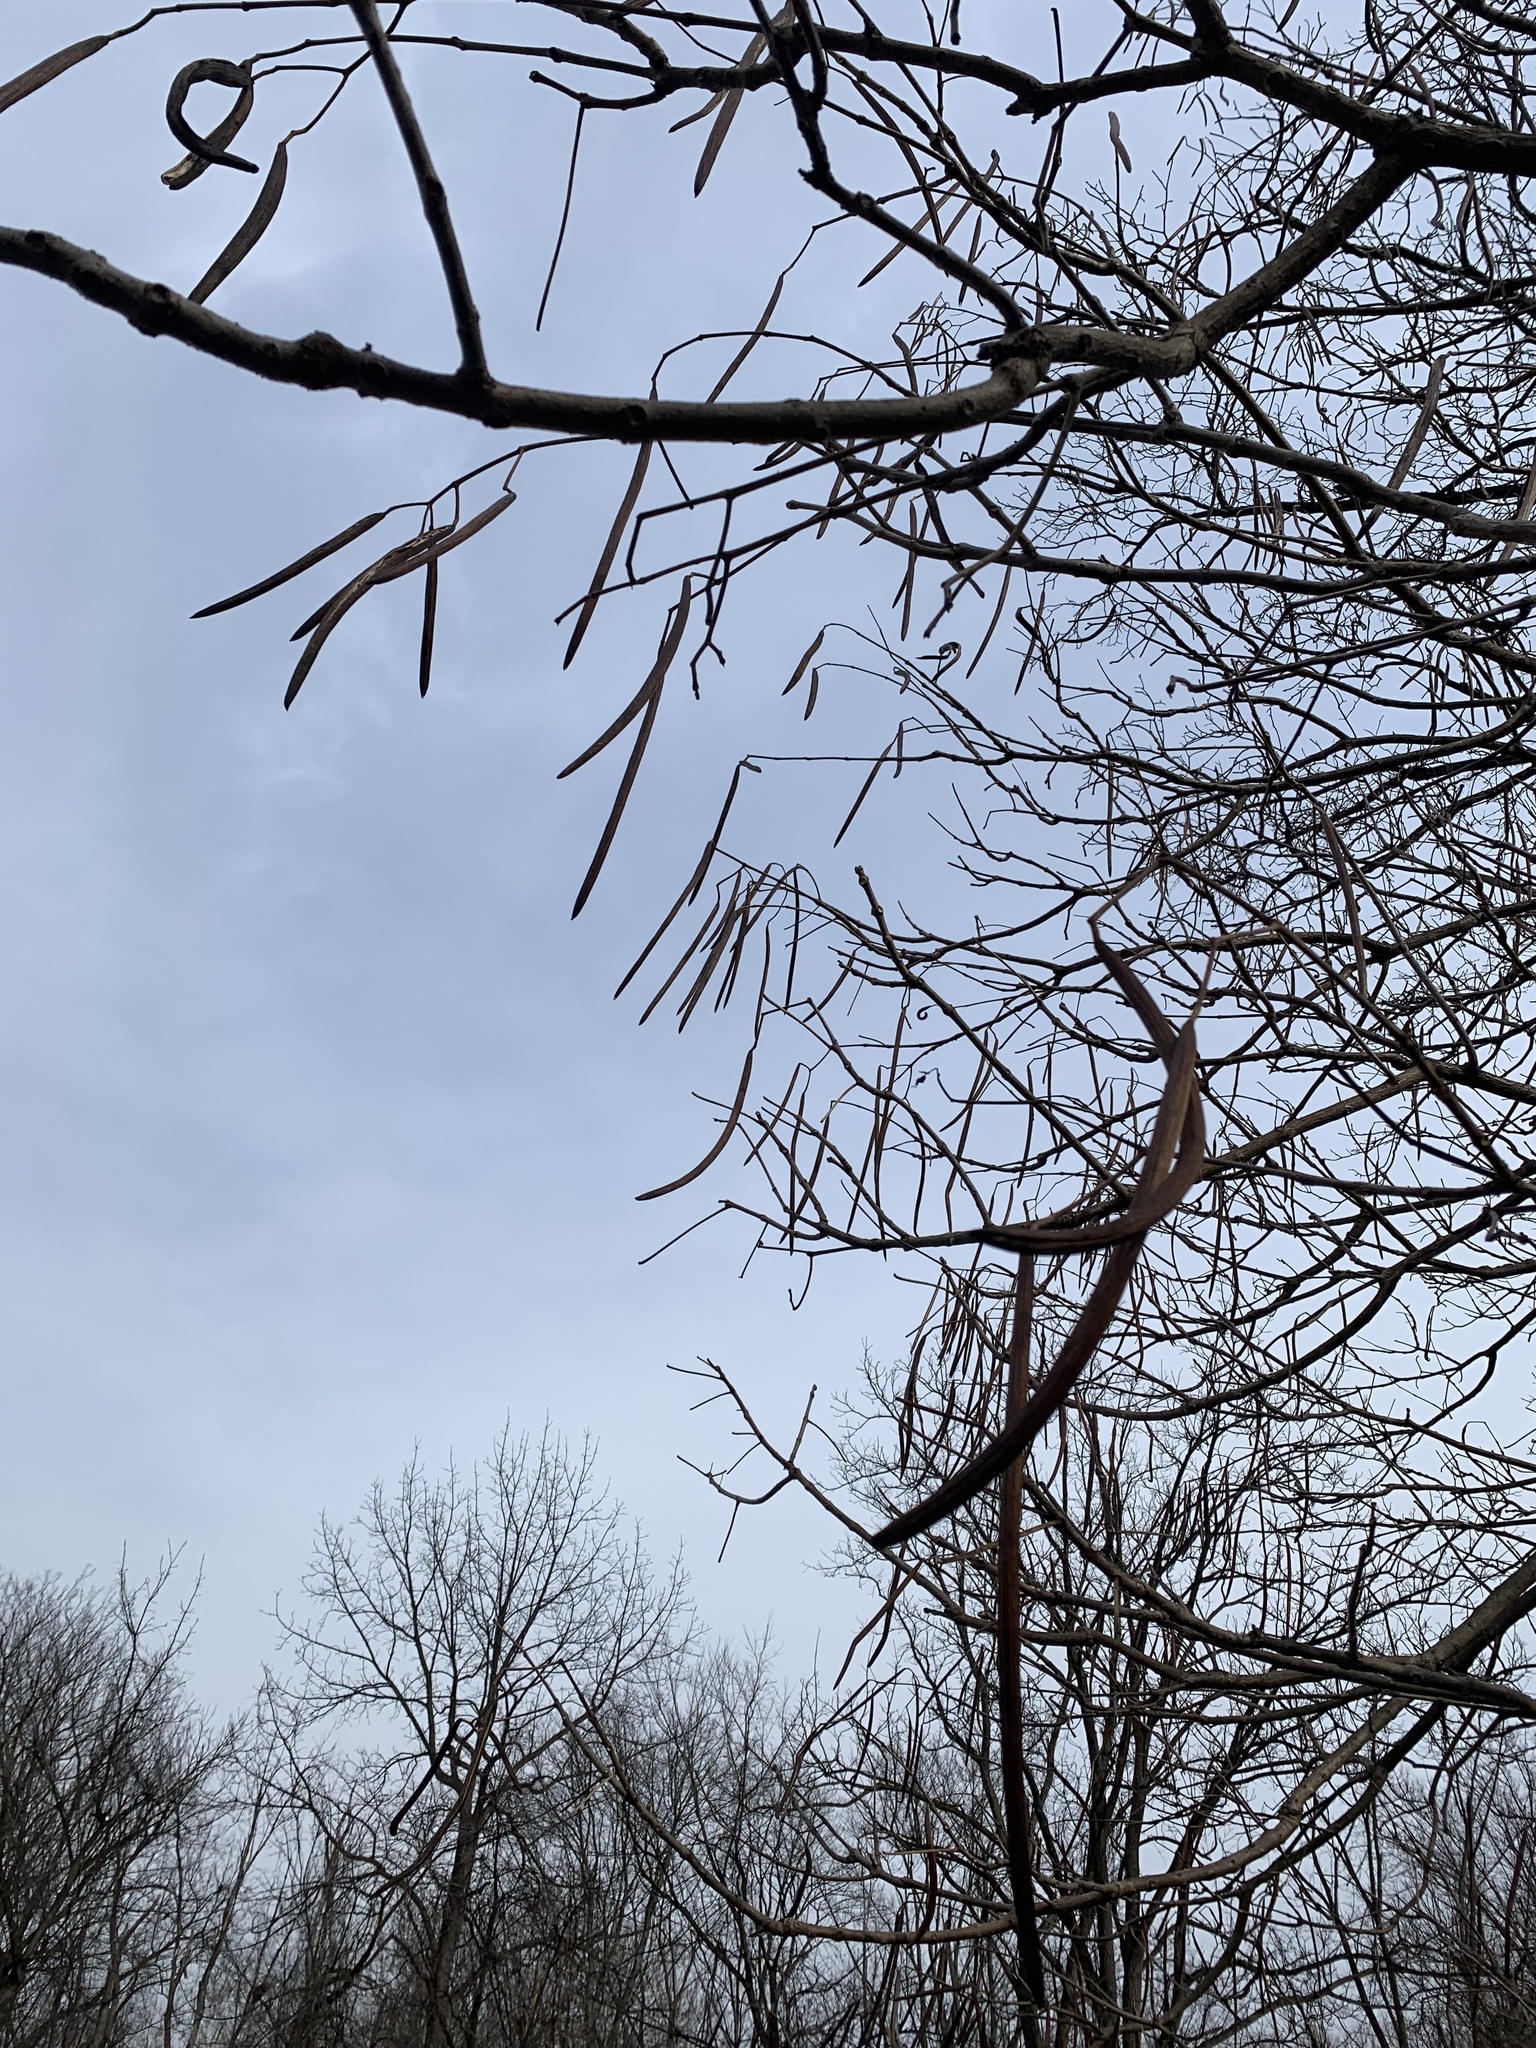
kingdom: Plantae
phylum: Tracheophyta
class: Magnoliopsida
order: Lamiales
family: Bignoniaceae
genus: Catalpa
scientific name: Catalpa
